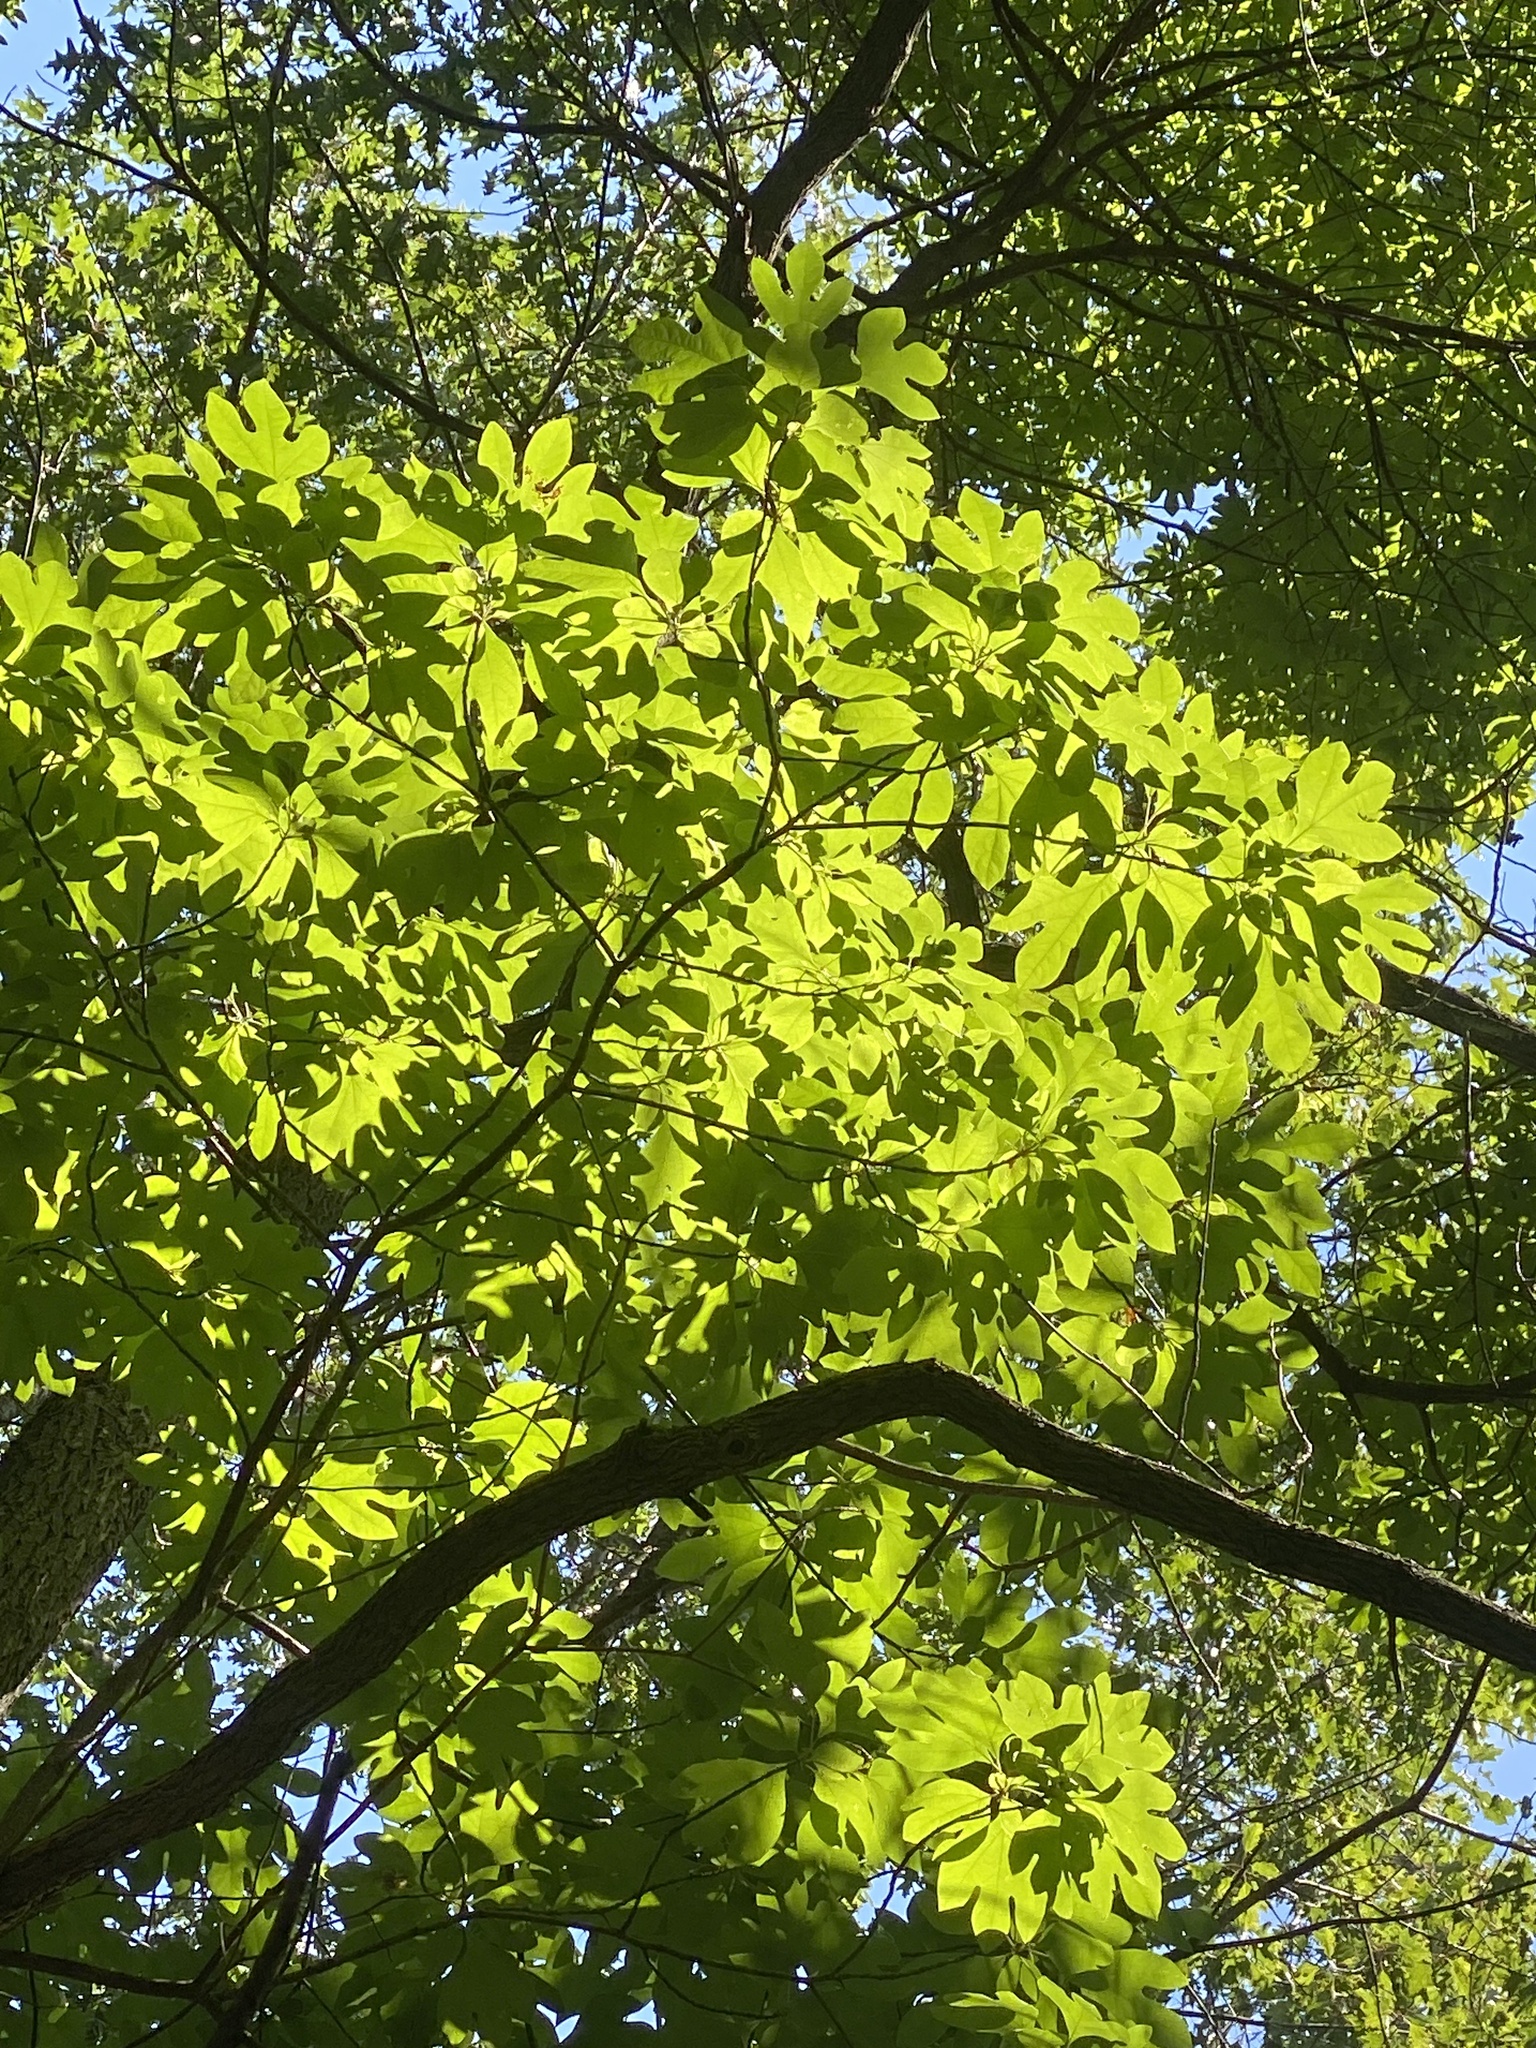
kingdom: Plantae
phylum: Tracheophyta
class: Magnoliopsida
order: Laurales
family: Lauraceae
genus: Sassafras
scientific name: Sassafras albidum
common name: Sassafras
